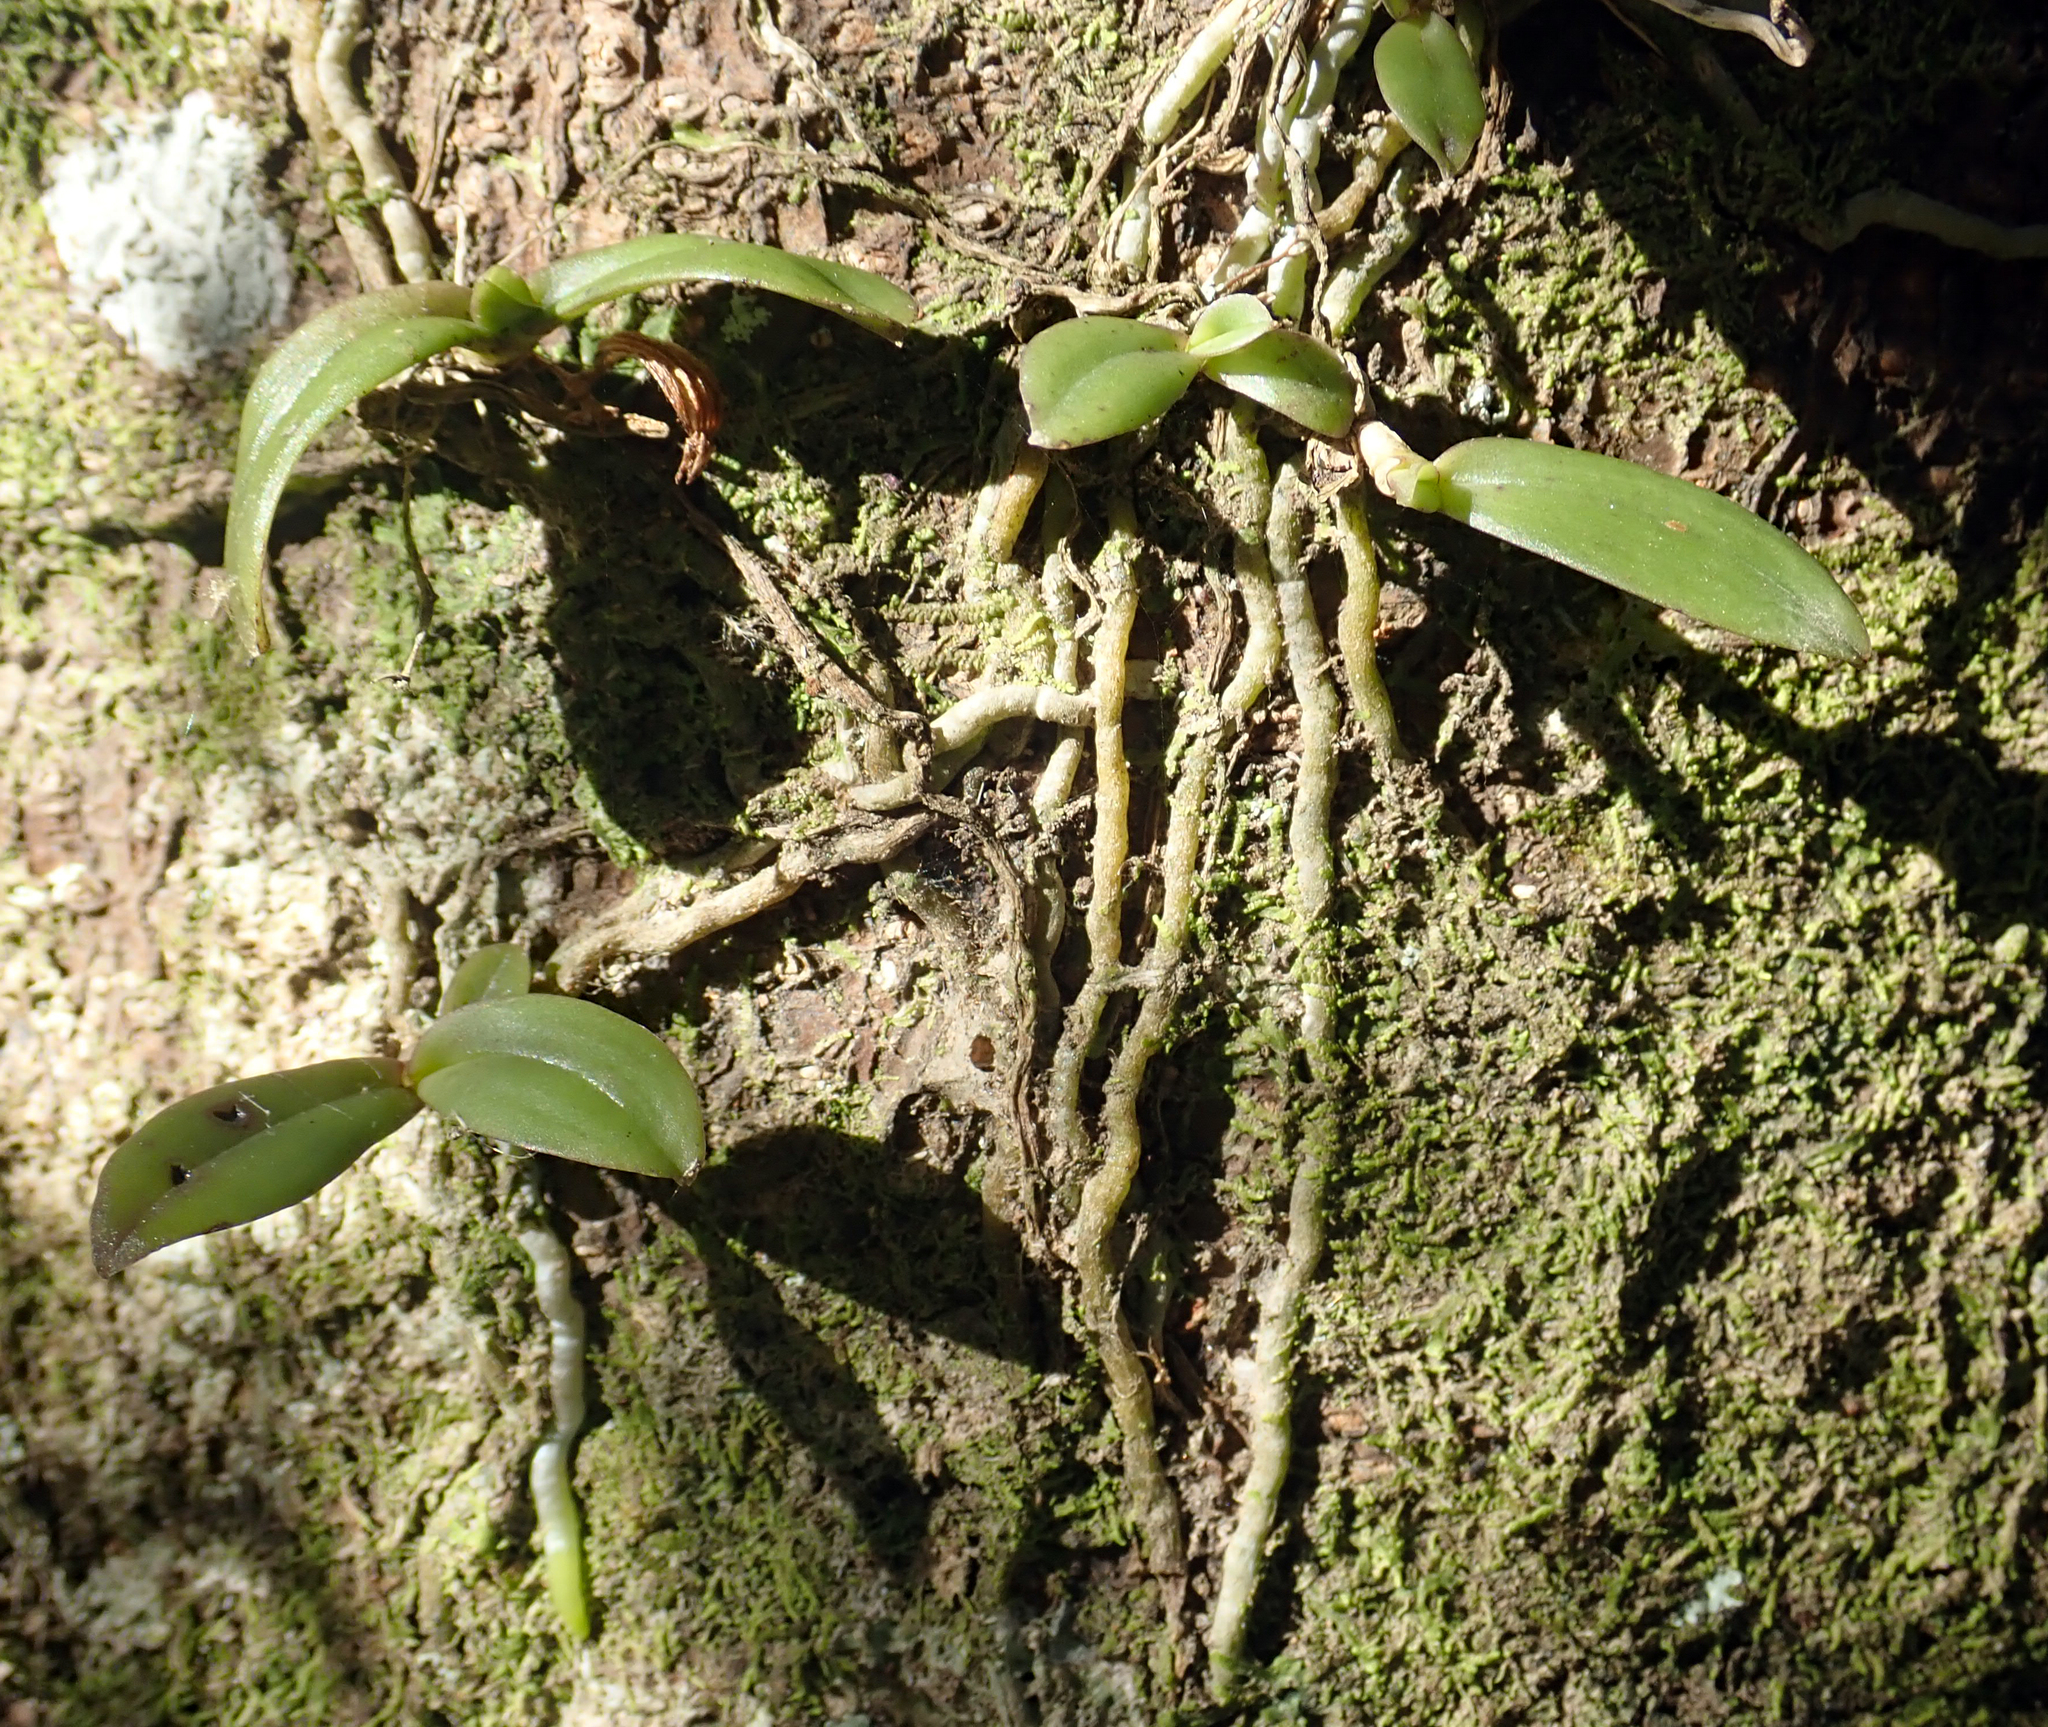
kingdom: Plantae
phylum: Tracheophyta
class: Liliopsida
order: Asparagales
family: Orchidaceae
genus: Drymoanthus
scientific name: Drymoanthus adversus
